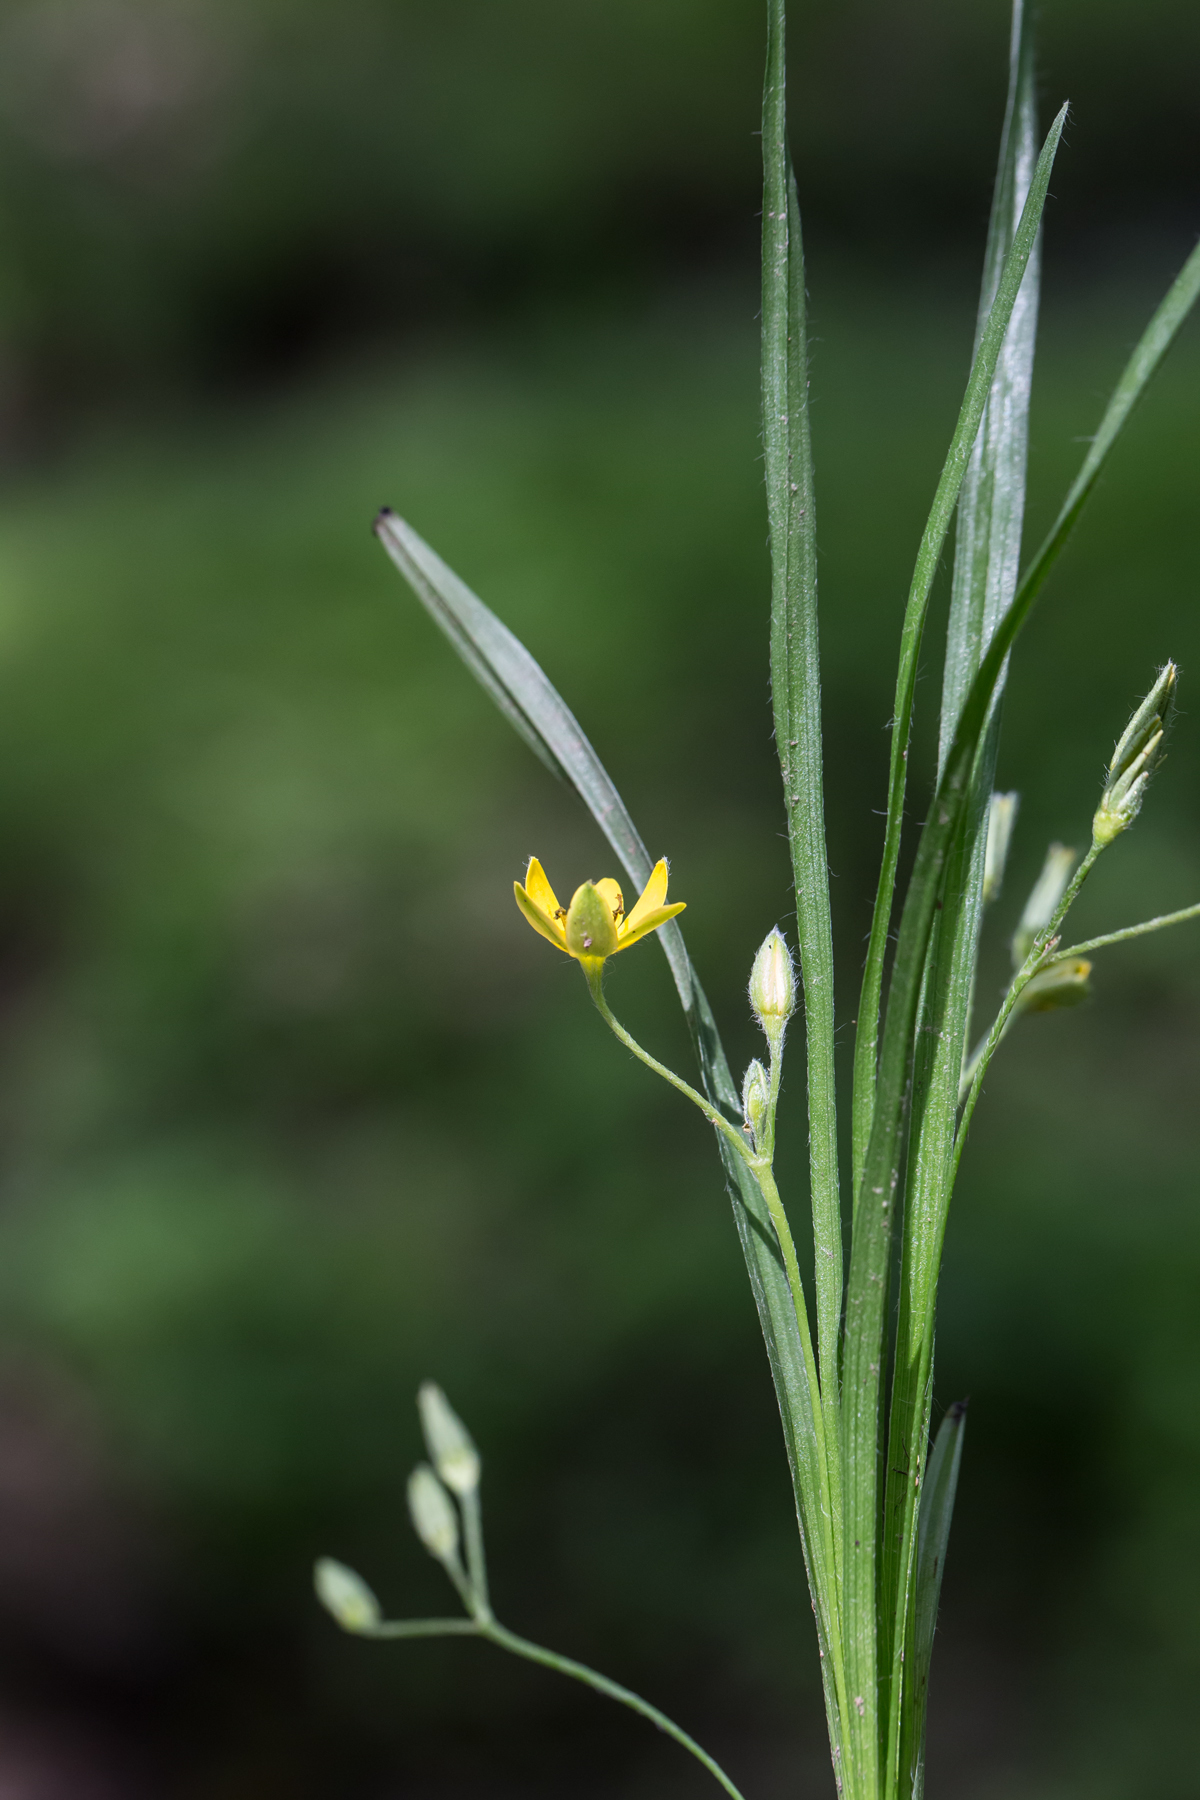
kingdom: Plantae
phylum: Tracheophyta
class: Liliopsida
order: Asparagales
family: Hypoxidaceae
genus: Hypoxis
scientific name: Hypoxis hirsuta
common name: Common goldstar
